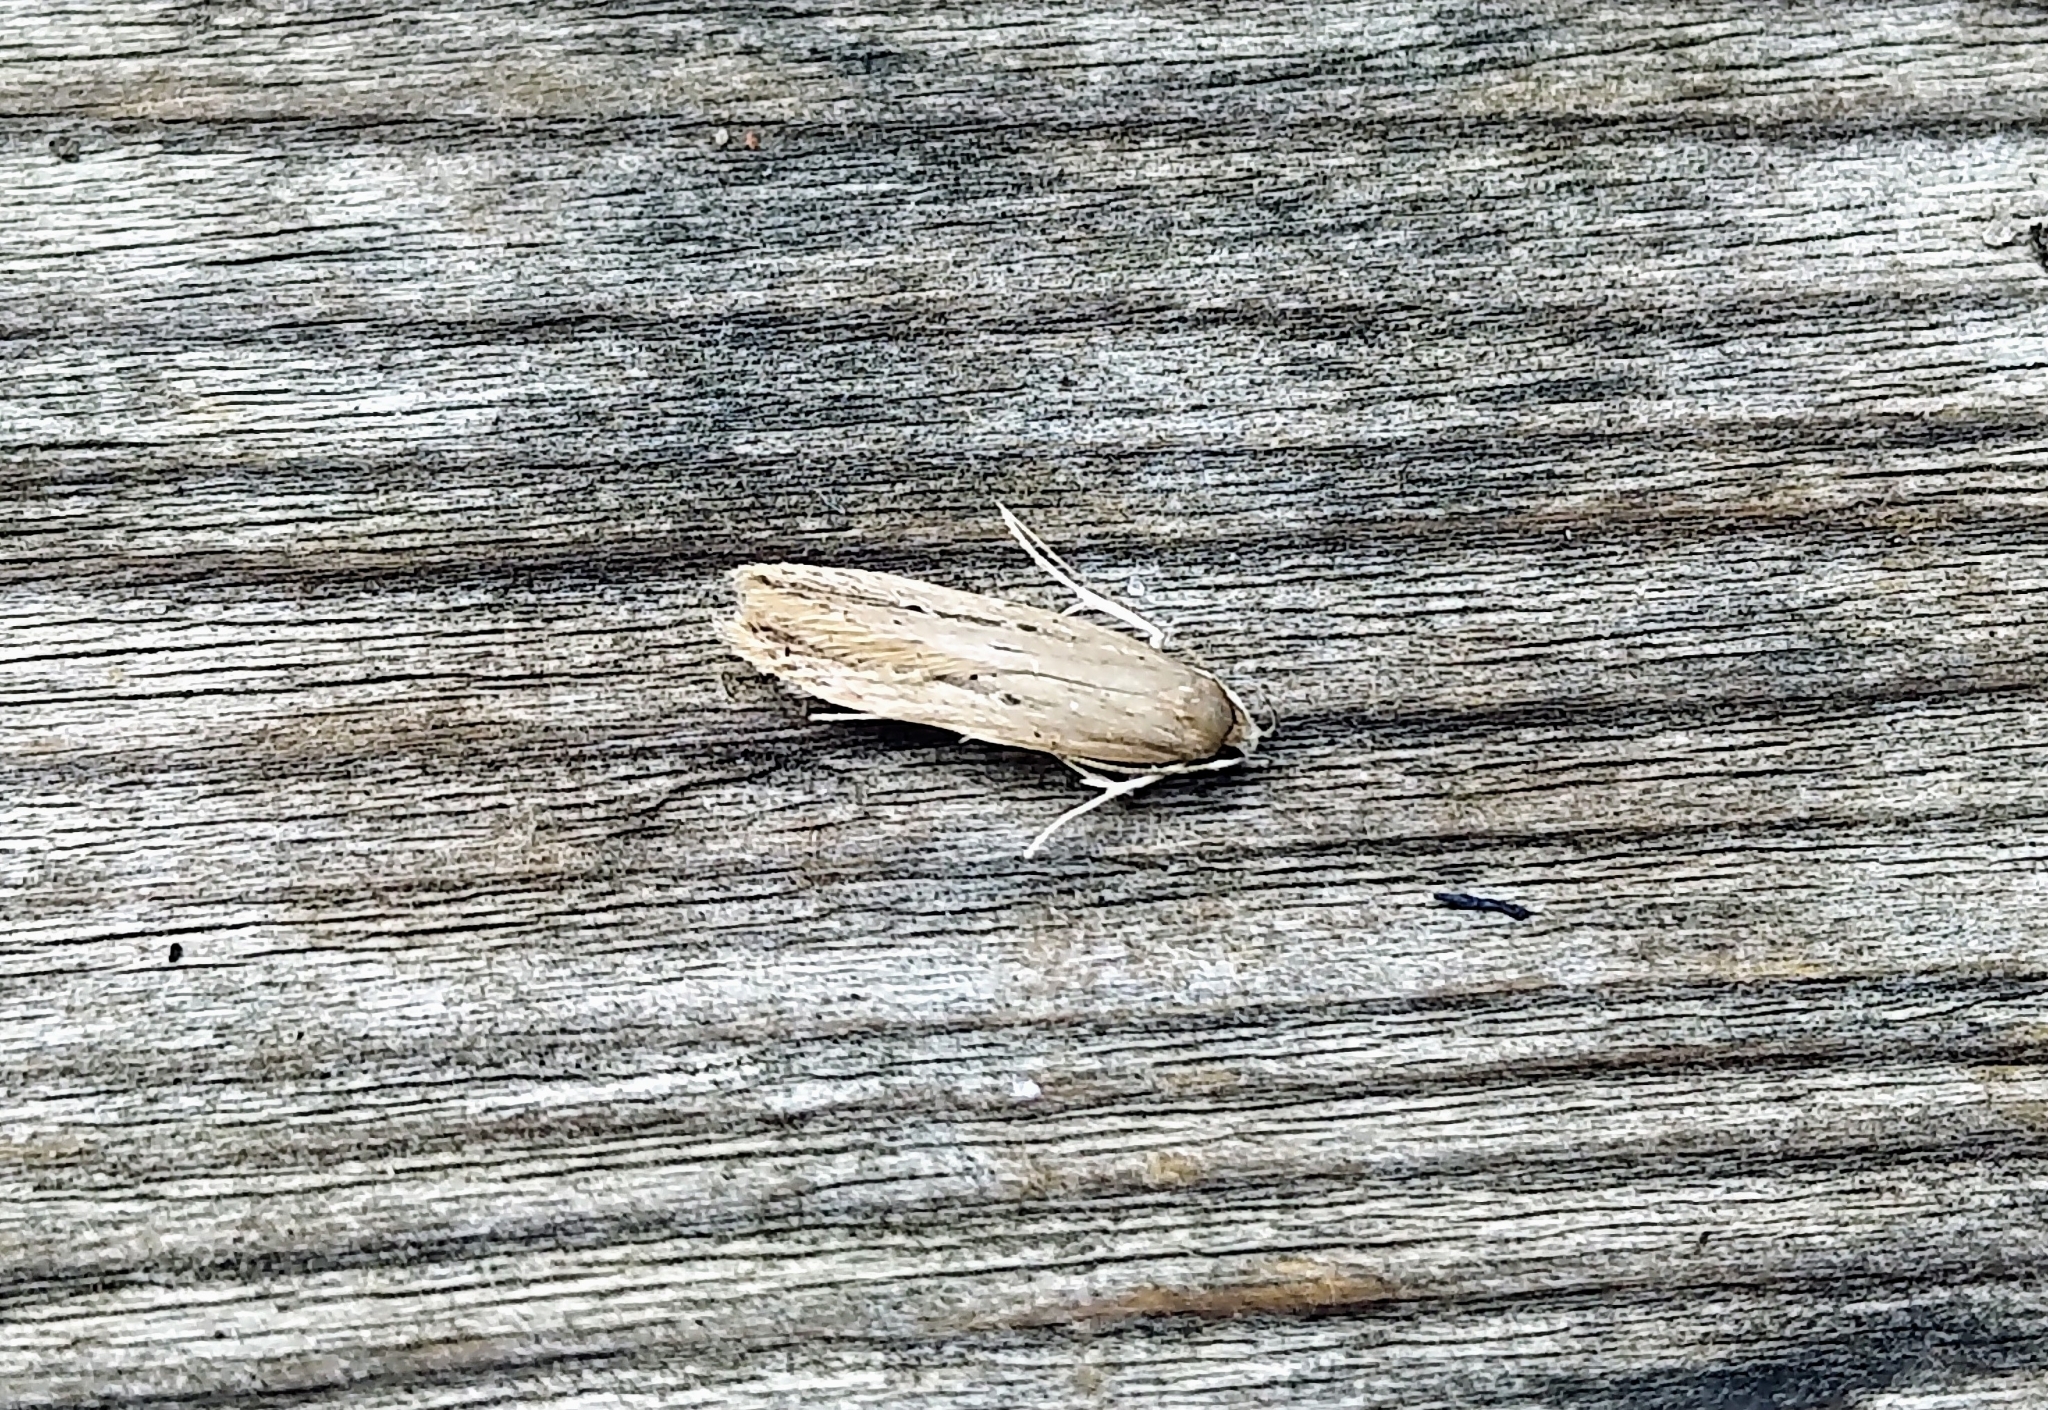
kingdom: Animalia
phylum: Arthropoda
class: Insecta
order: Lepidoptera
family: Cosmopterigidae
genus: Limnaecia
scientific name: Limnaecia phragmitella
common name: Bulrush cosmet
